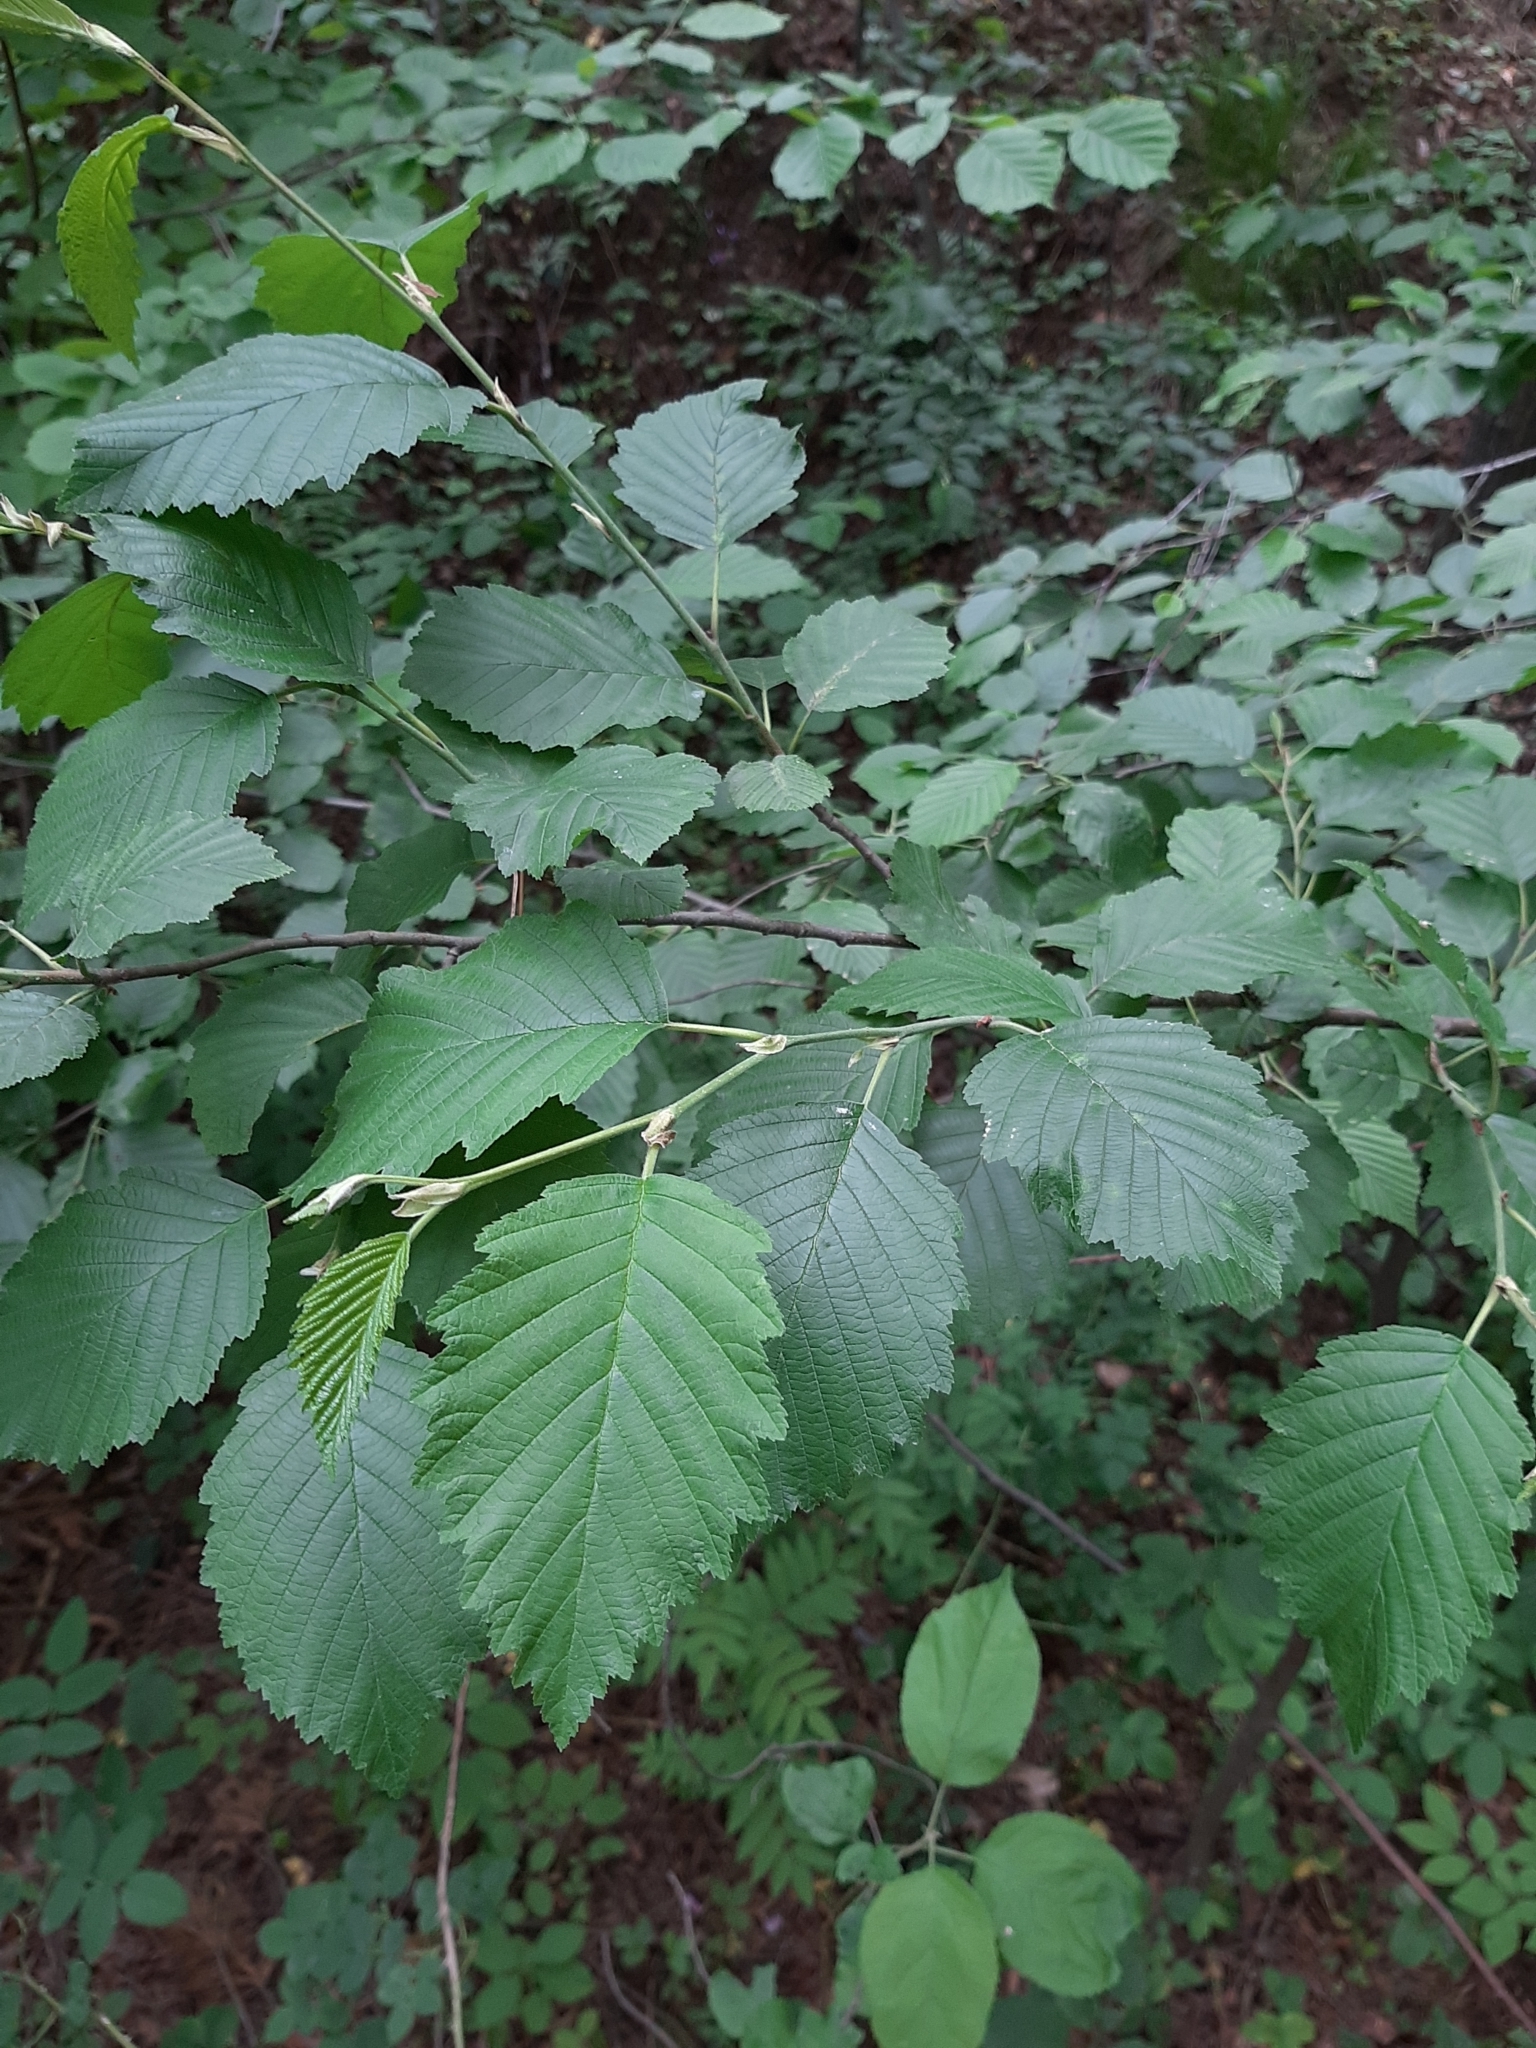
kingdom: Plantae
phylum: Tracheophyta
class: Magnoliopsida
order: Fagales
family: Betulaceae
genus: Alnus
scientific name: Alnus incana
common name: Grey alder
